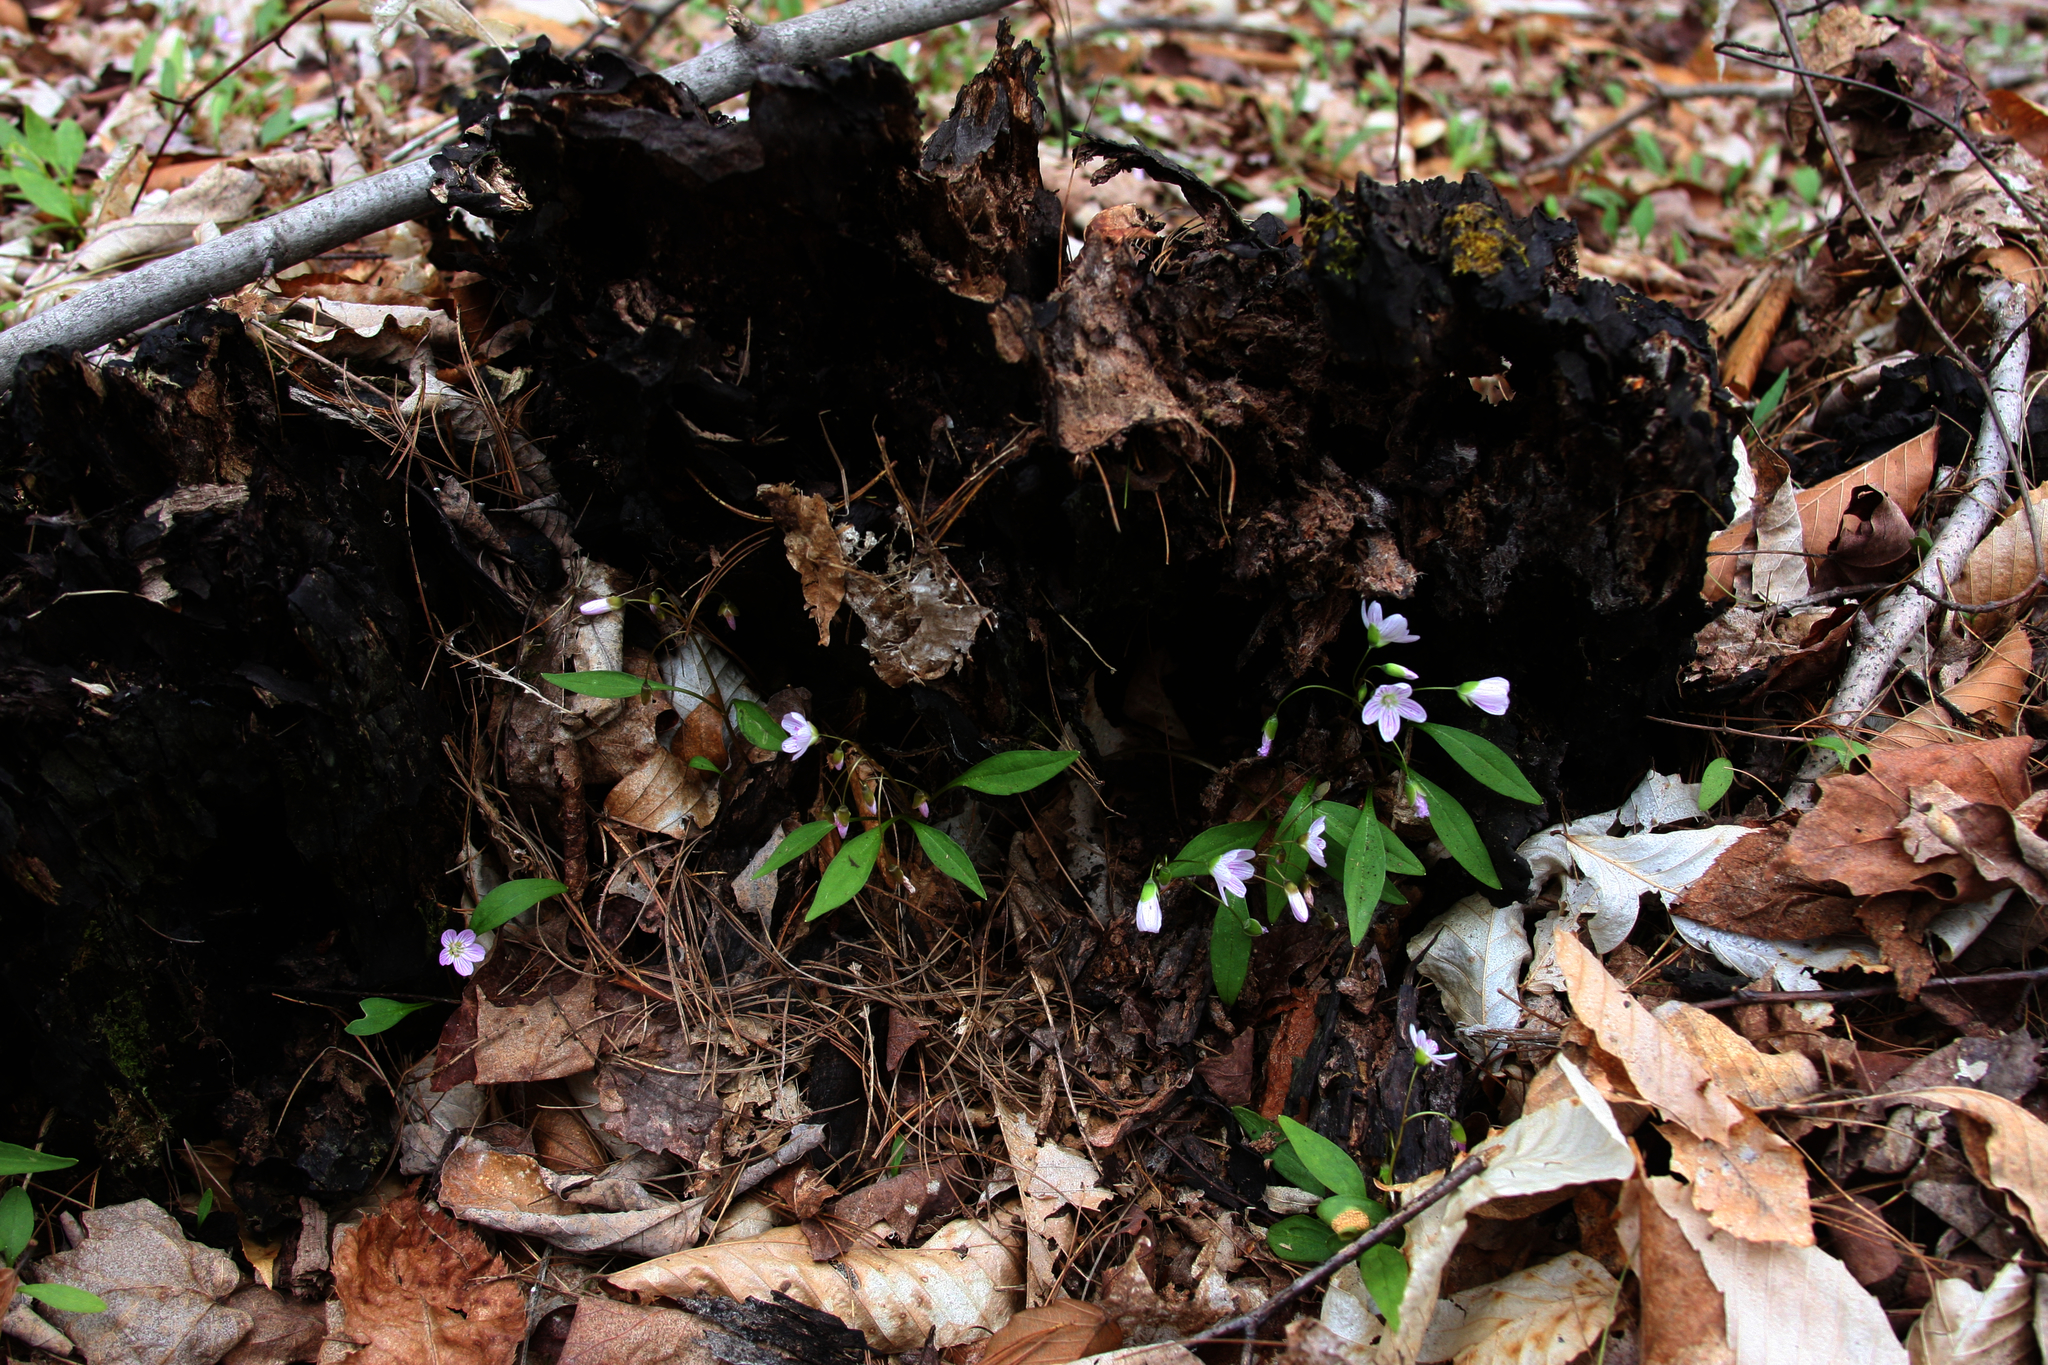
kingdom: Plantae
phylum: Tracheophyta
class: Magnoliopsida
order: Caryophyllales
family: Montiaceae
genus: Claytonia
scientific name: Claytonia caroliniana
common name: Carolina spring beauty
